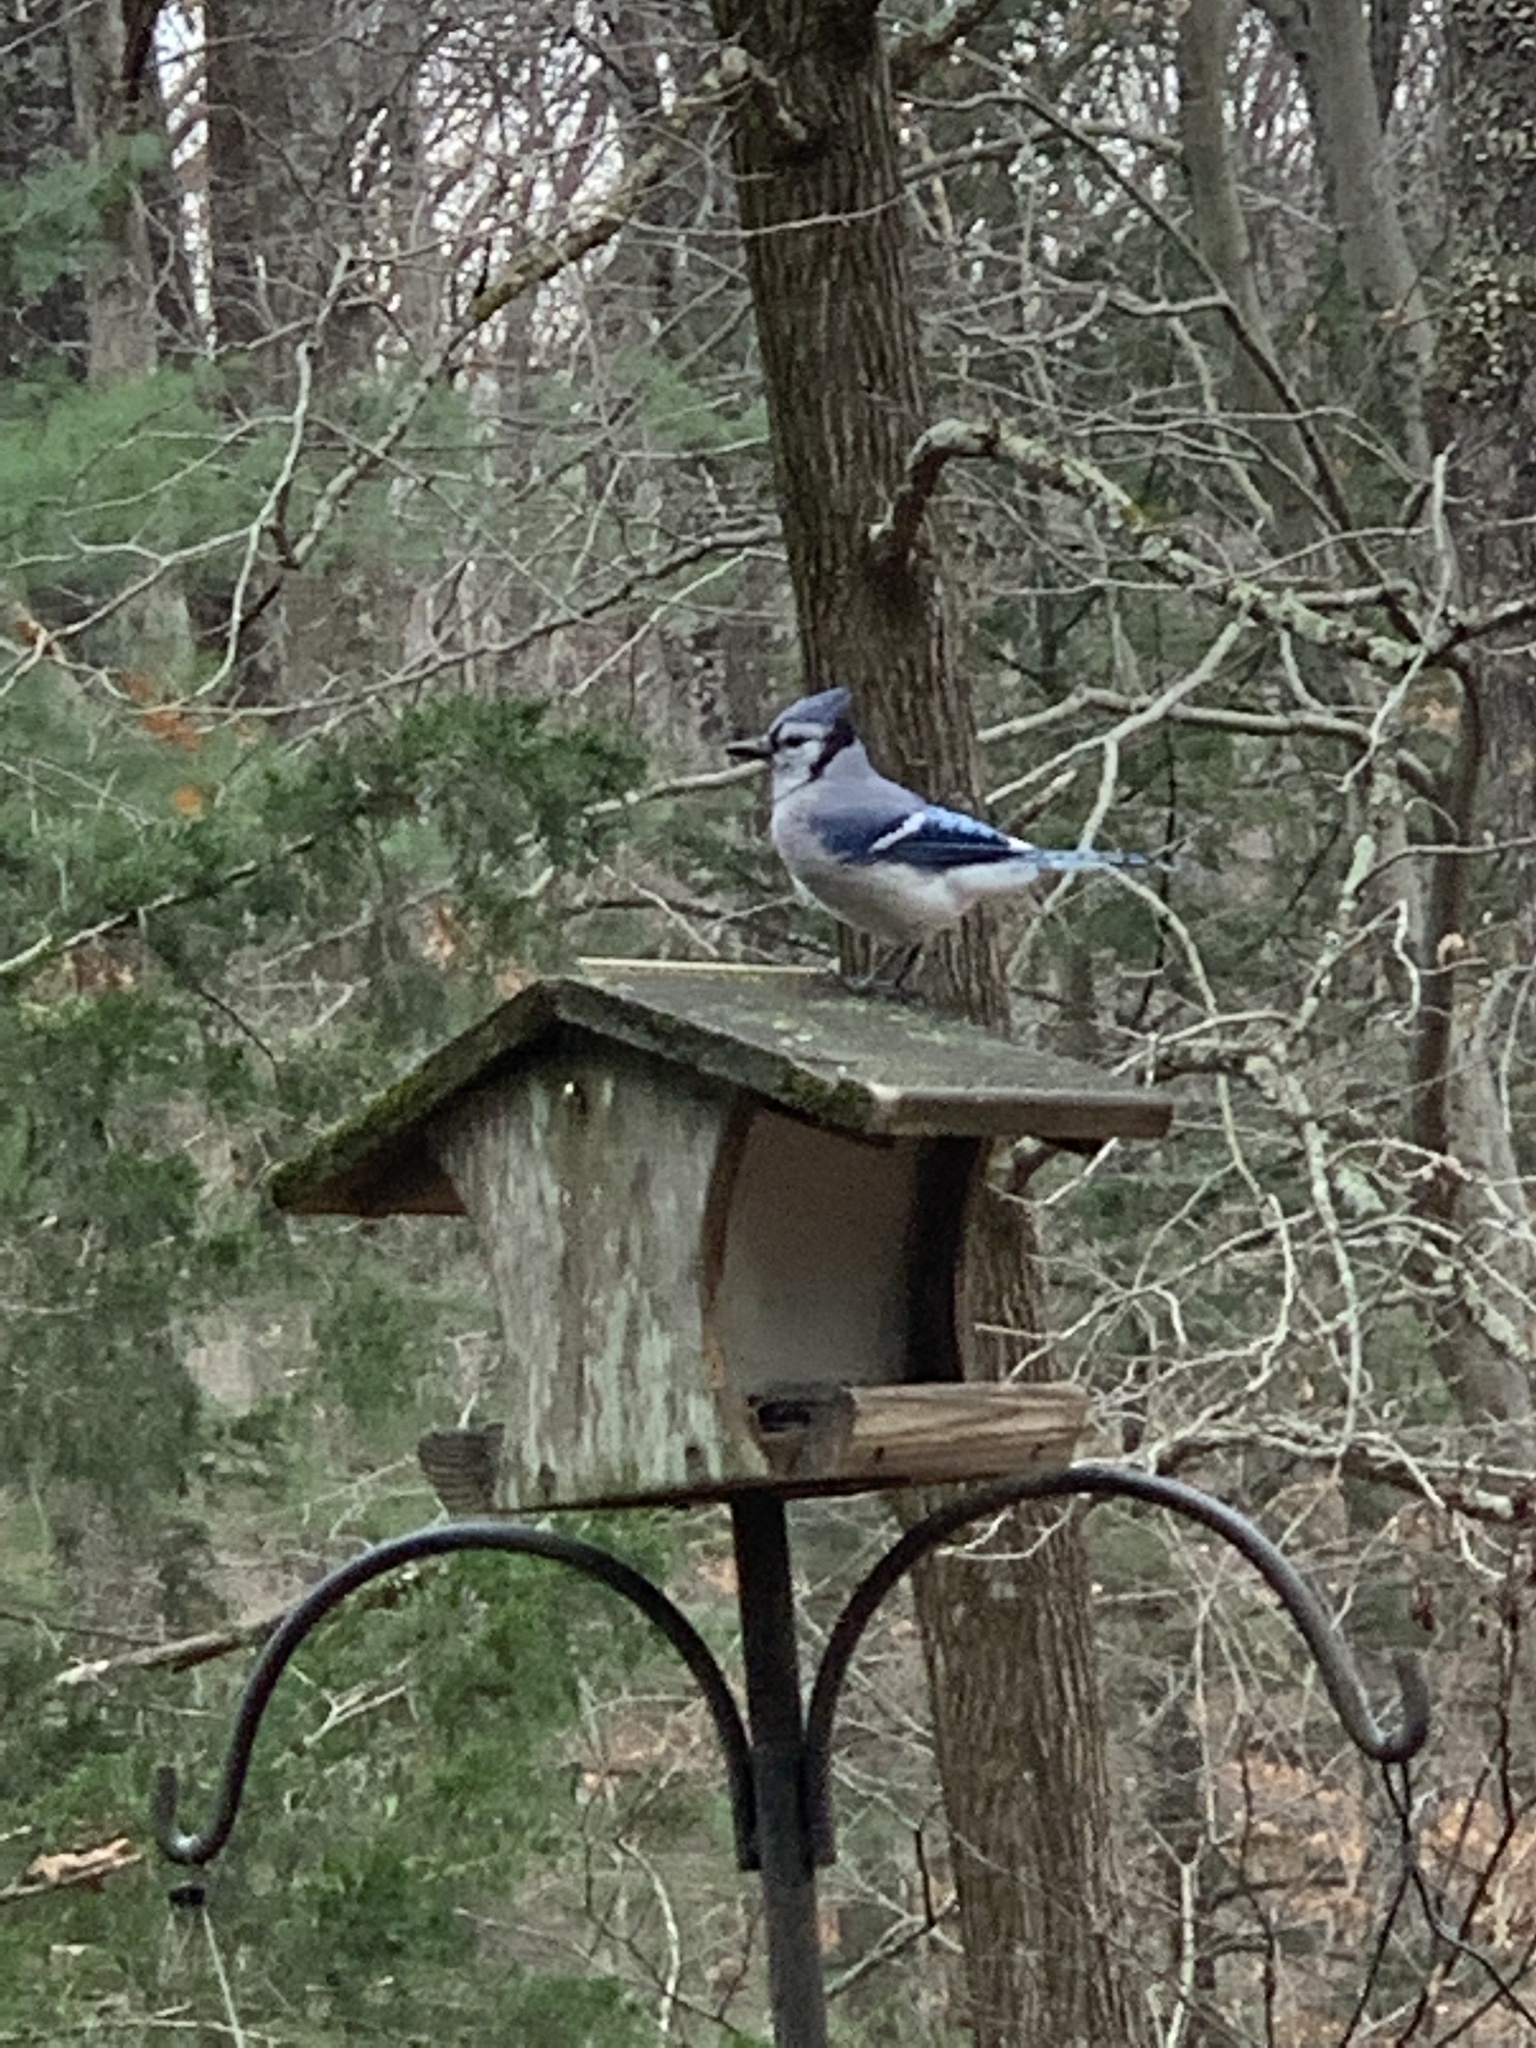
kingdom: Animalia
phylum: Chordata
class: Aves
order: Passeriformes
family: Corvidae
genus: Cyanocitta
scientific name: Cyanocitta cristata
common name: Blue jay
